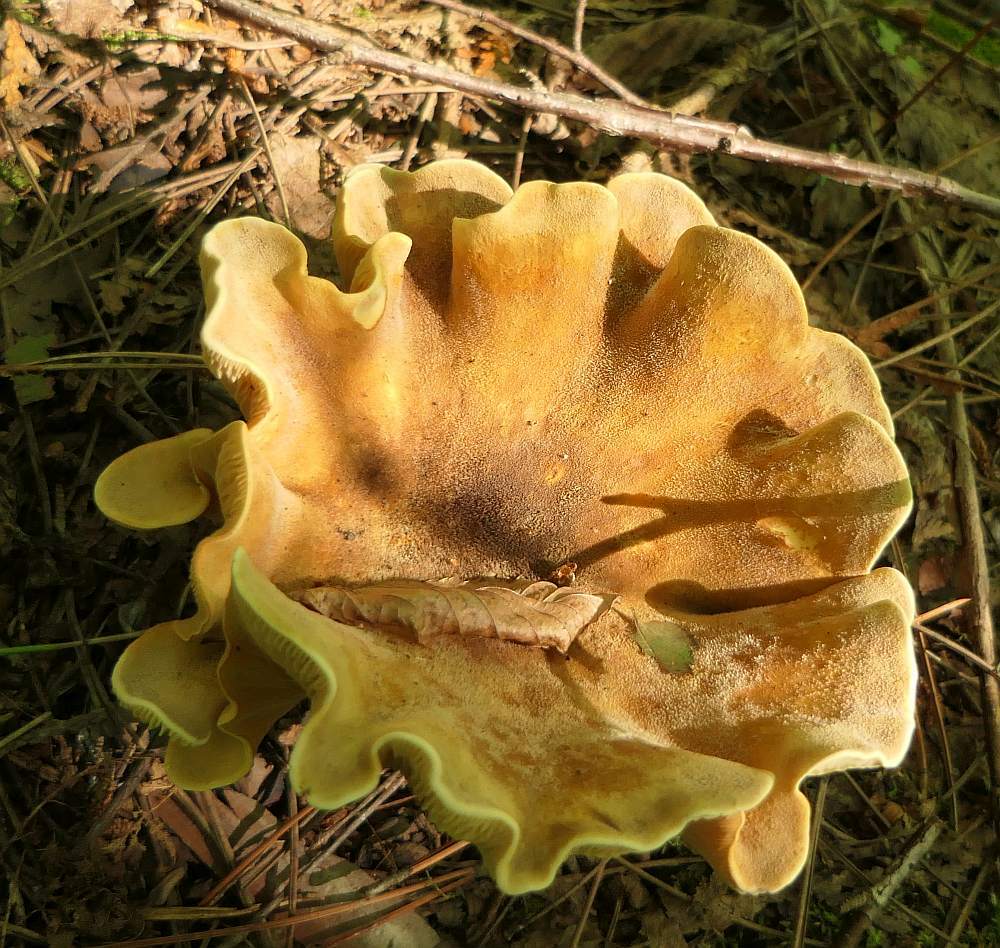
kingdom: Fungi
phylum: Basidiomycota
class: Agaricomycetes
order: Boletales
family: Tapinellaceae
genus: Tapinella
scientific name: Tapinella atrotomentosa
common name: Velvet rollrim
